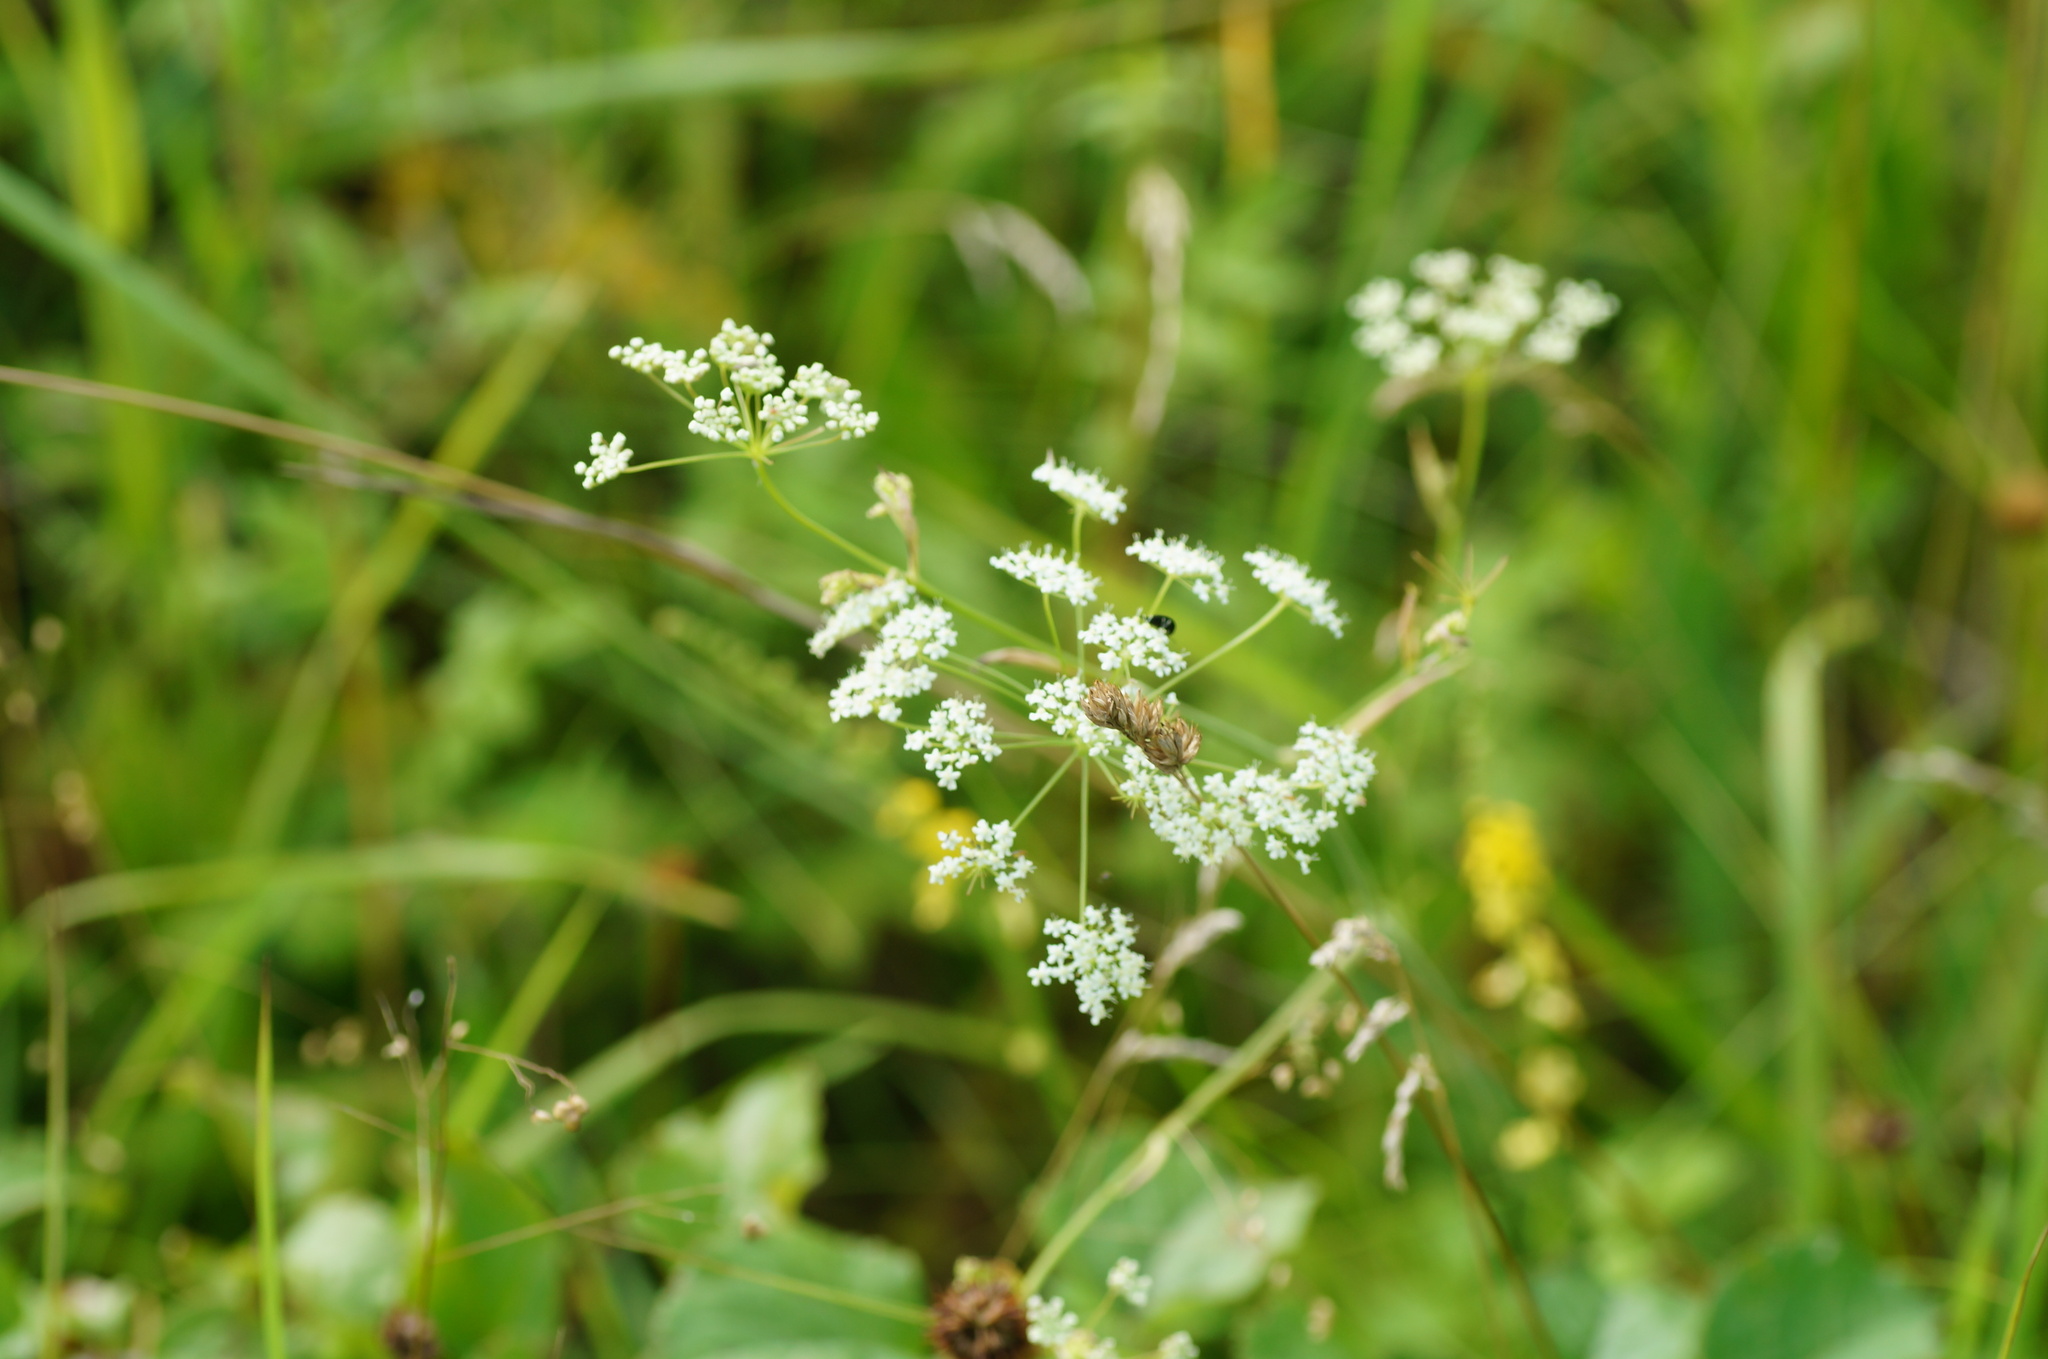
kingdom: Plantae
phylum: Tracheophyta
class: Magnoliopsida
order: Apiales
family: Apiaceae
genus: Pimpinella
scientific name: Pimpinella saxifraga
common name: Burnet-saxifrage
